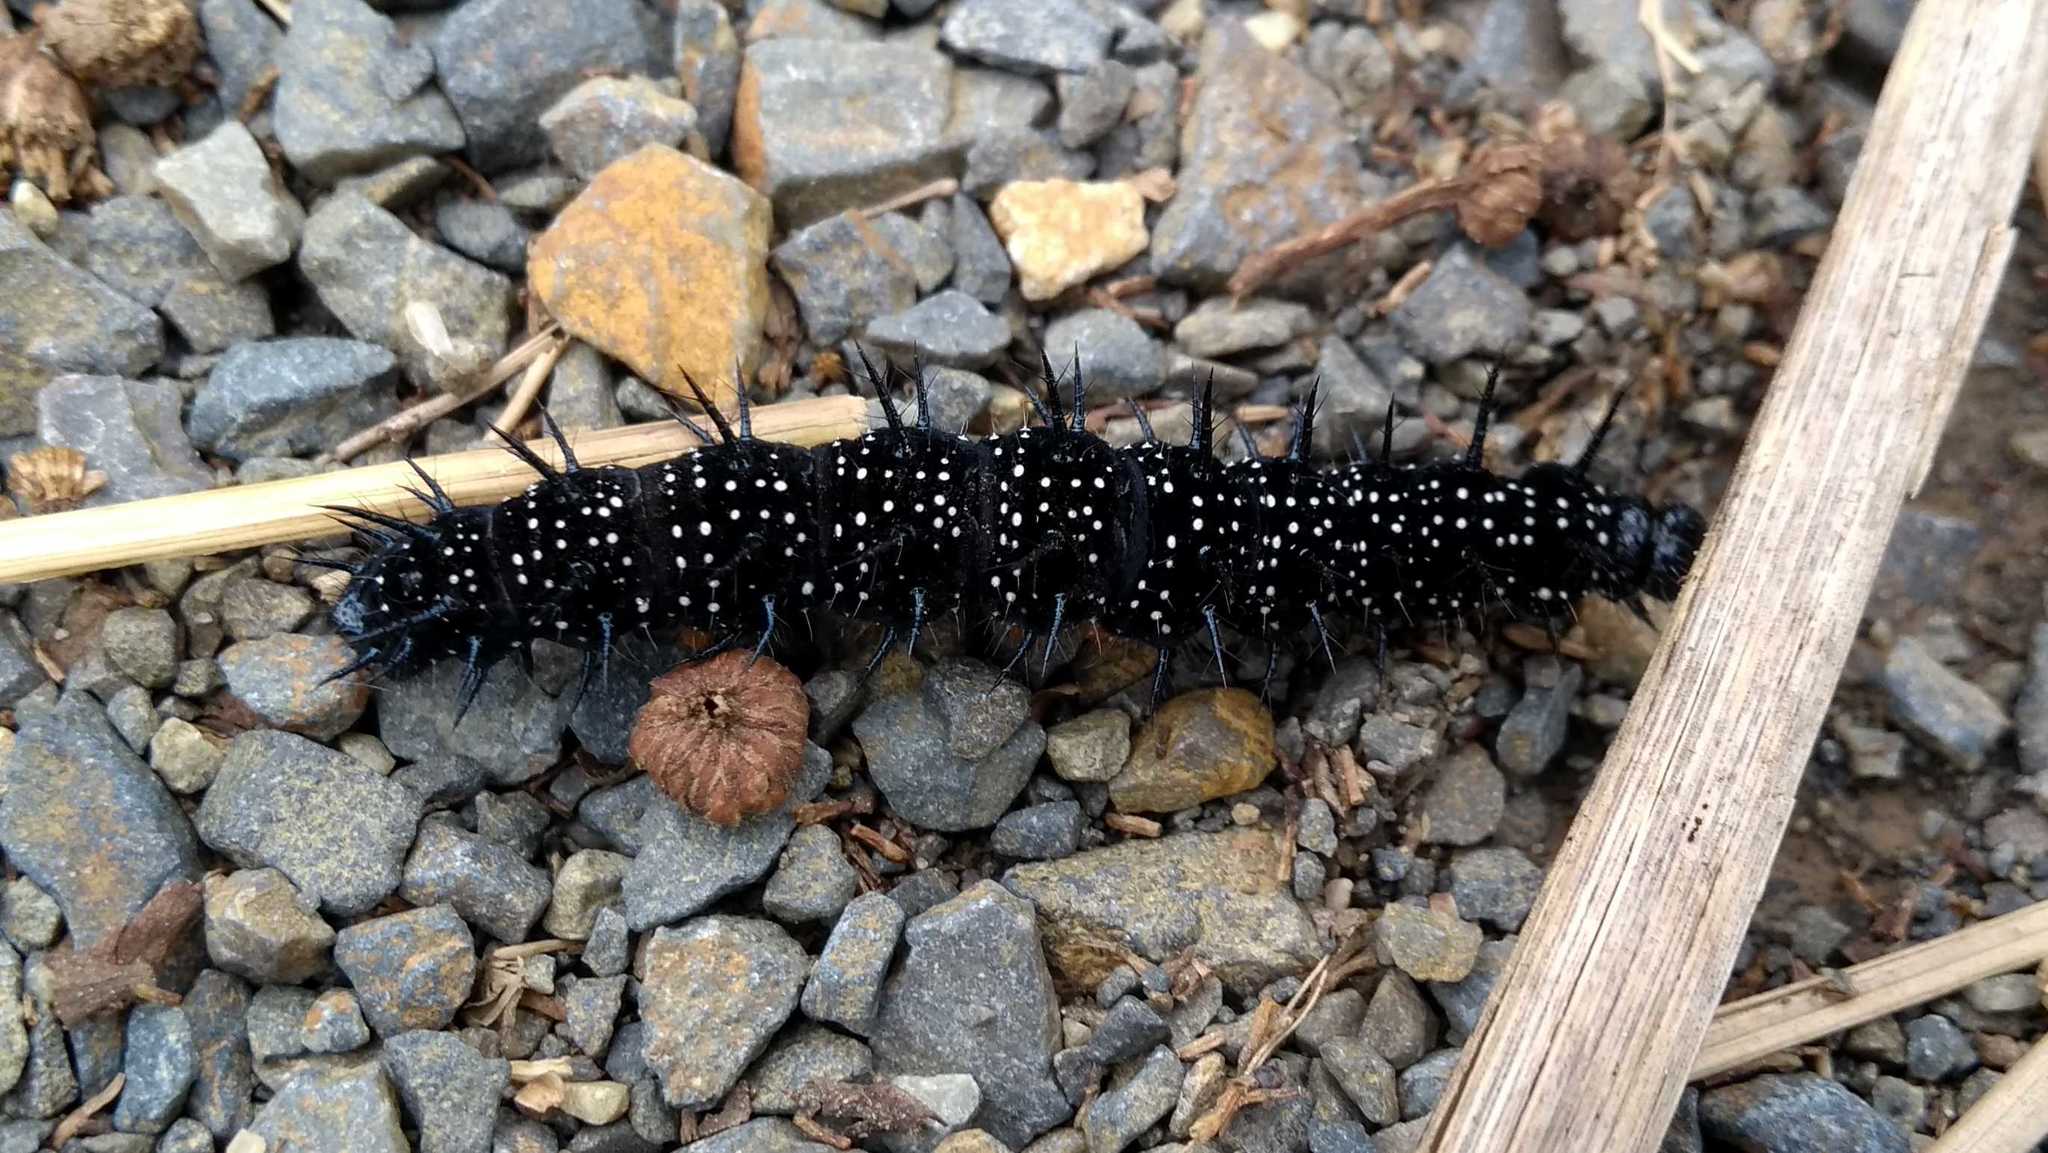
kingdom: Animalia
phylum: Arthropoda
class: Insecta
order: Lepidoptera
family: Nymphalidae
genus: Aglais
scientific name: Aglais io
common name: Peacock
